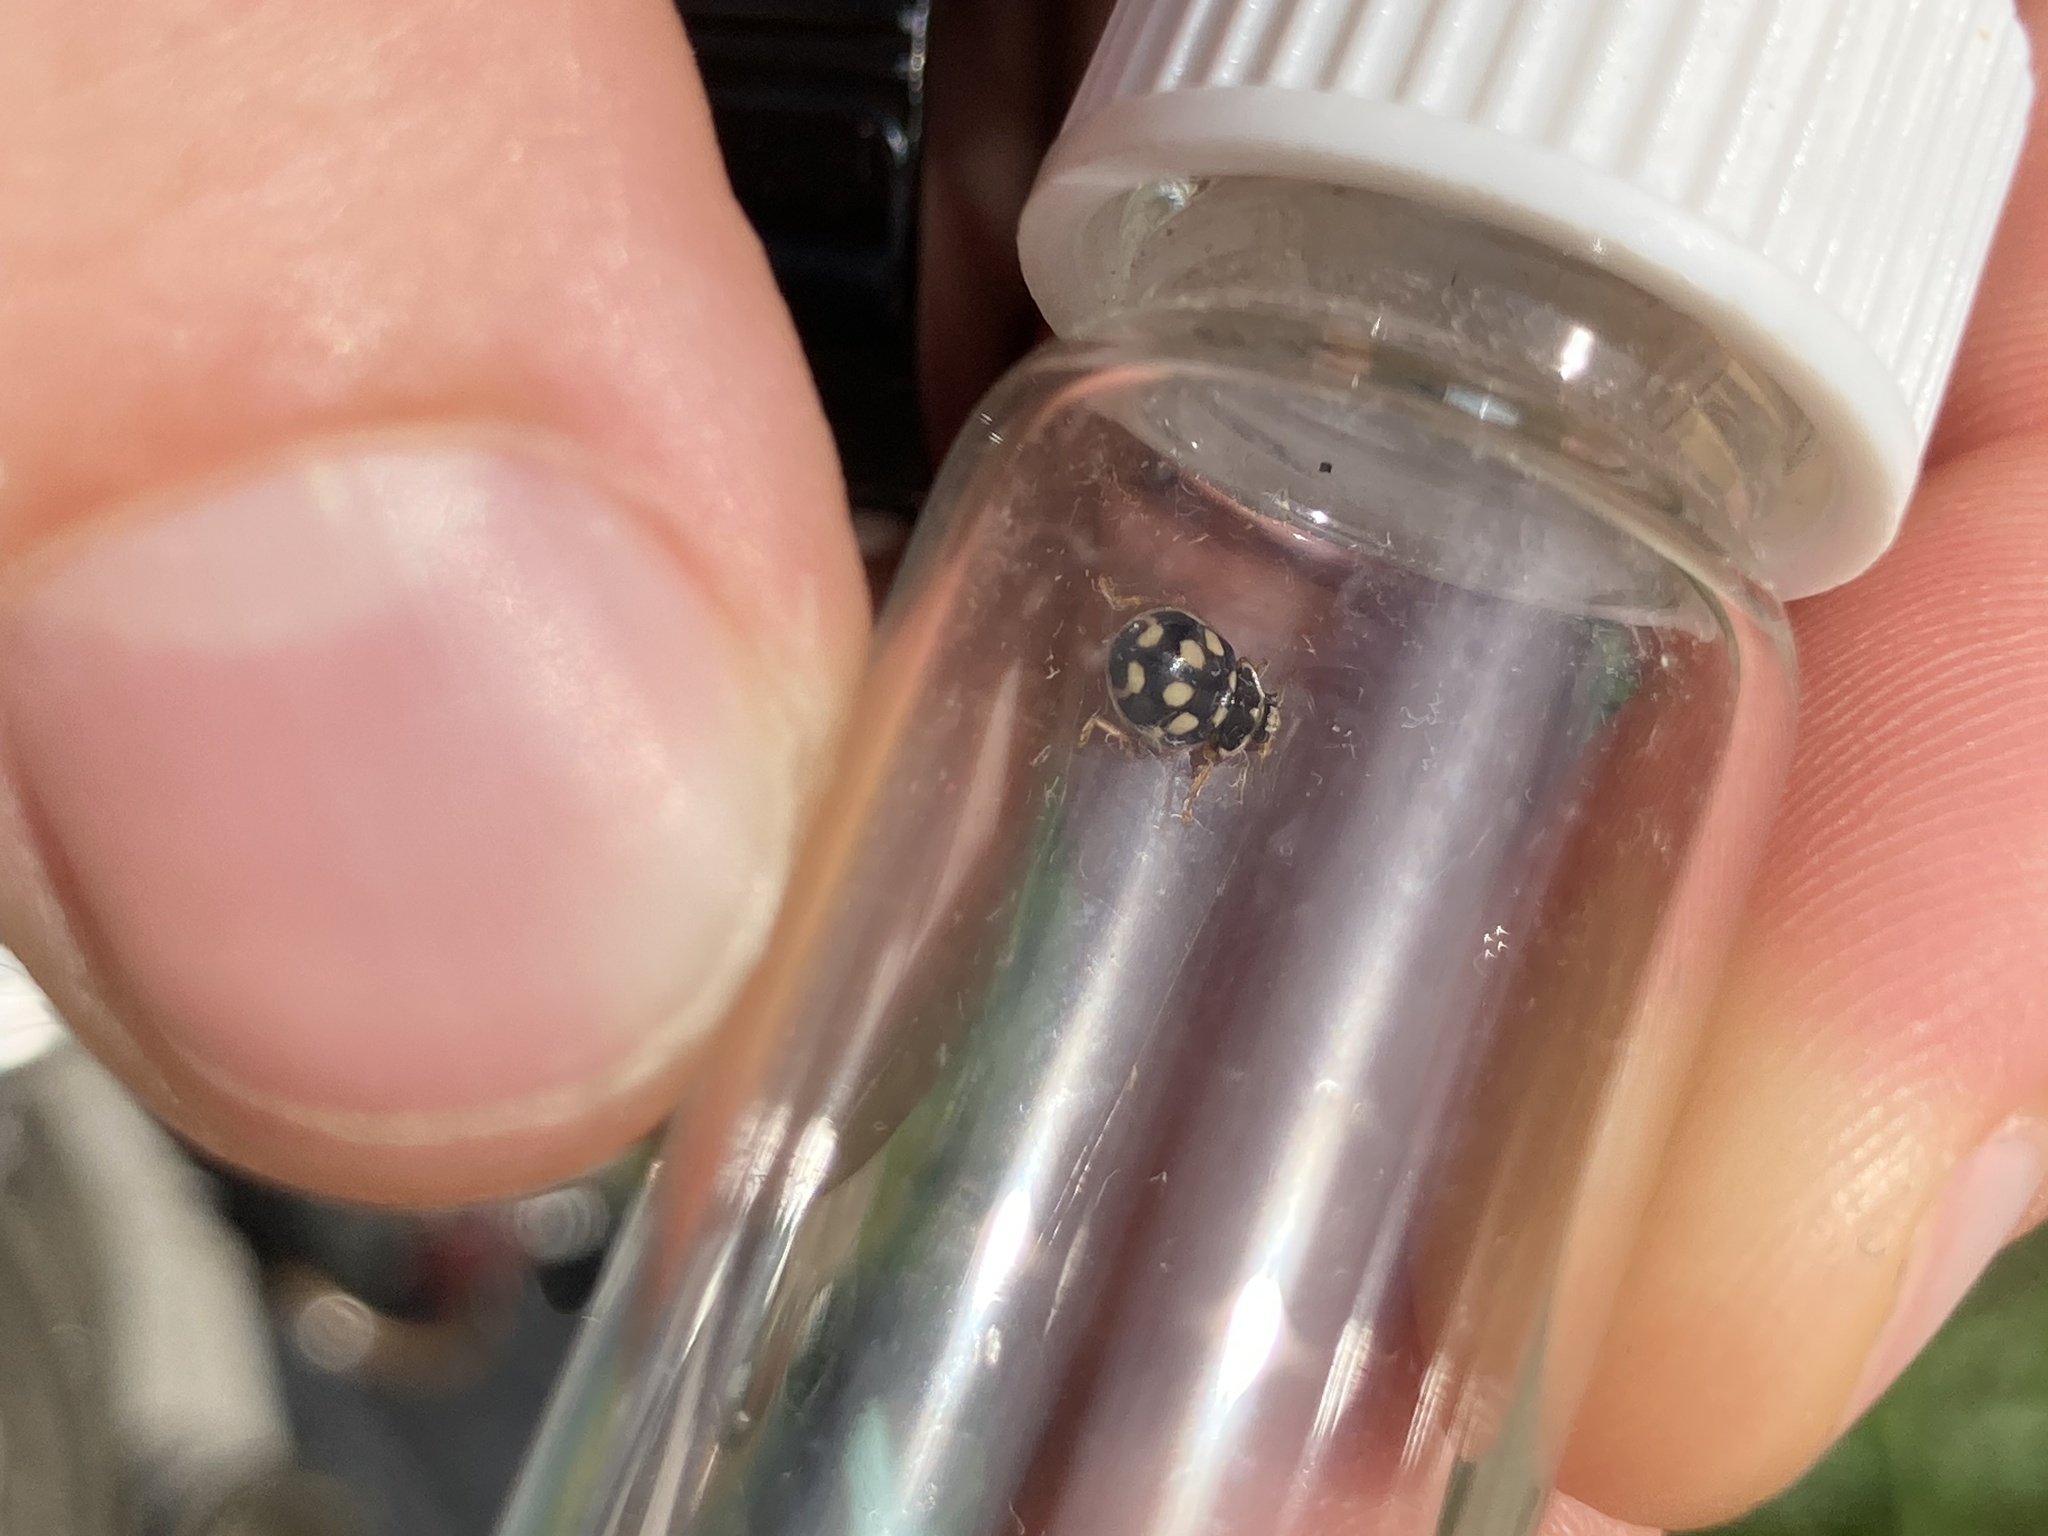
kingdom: Animalia
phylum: Arthropoda
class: Insecta
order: Coleoptera
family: Coccinellidae
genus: Propylaea
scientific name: Propylaea quatuordecimpunctata
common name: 14-spotted ladybird beetle
